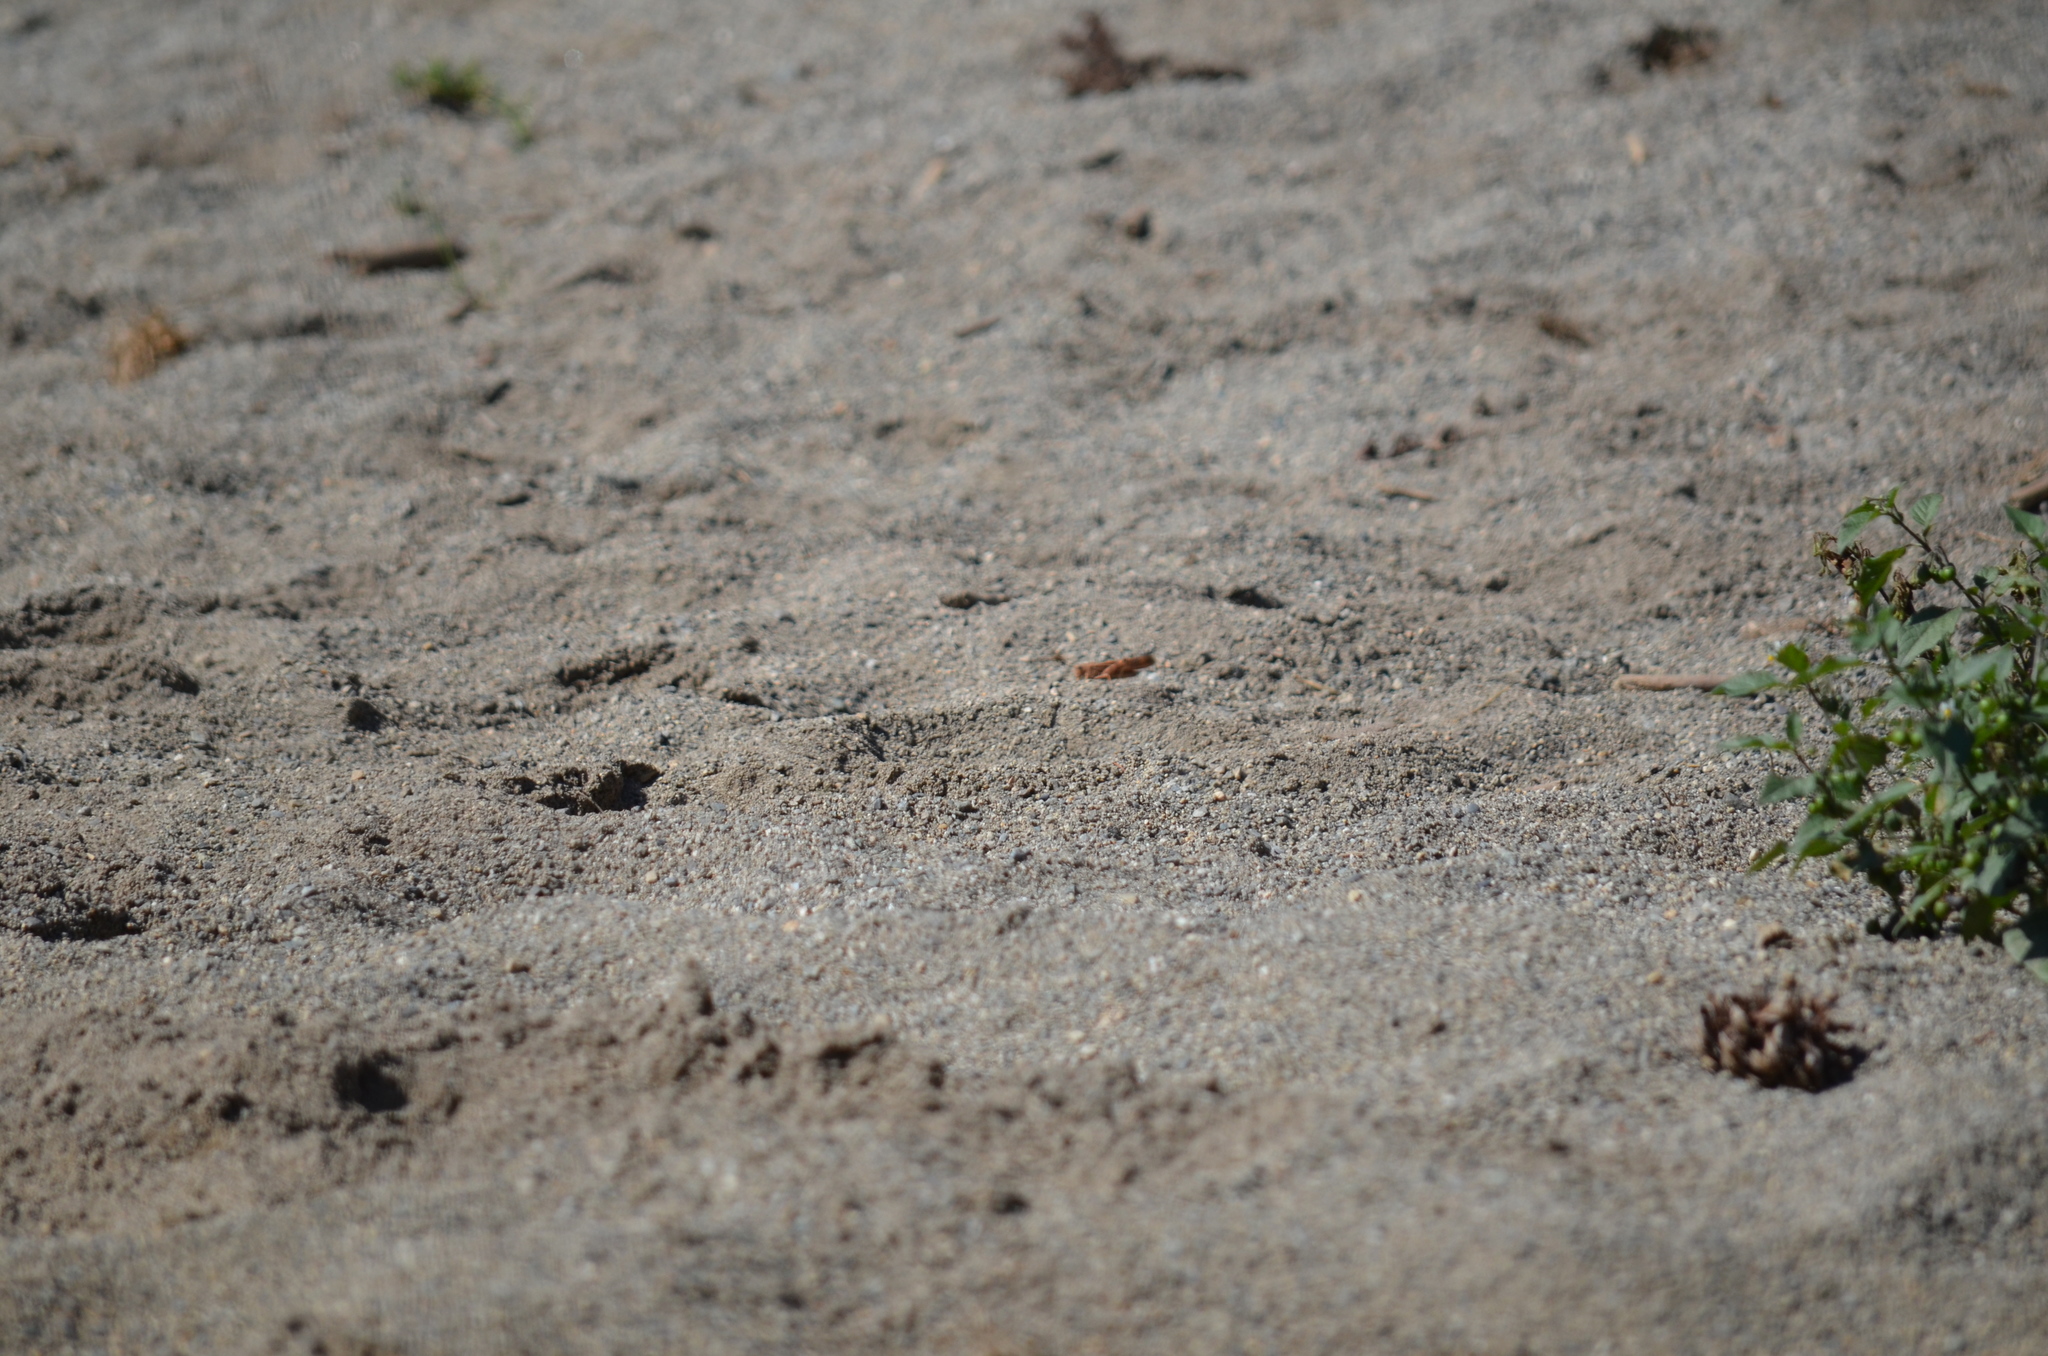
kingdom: Animalia
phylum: Arthropoda
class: Insecta
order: Orthoptera
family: Acrididae
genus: Dissosteira
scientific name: Dissosteira carolina
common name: Carolina grasshopper
